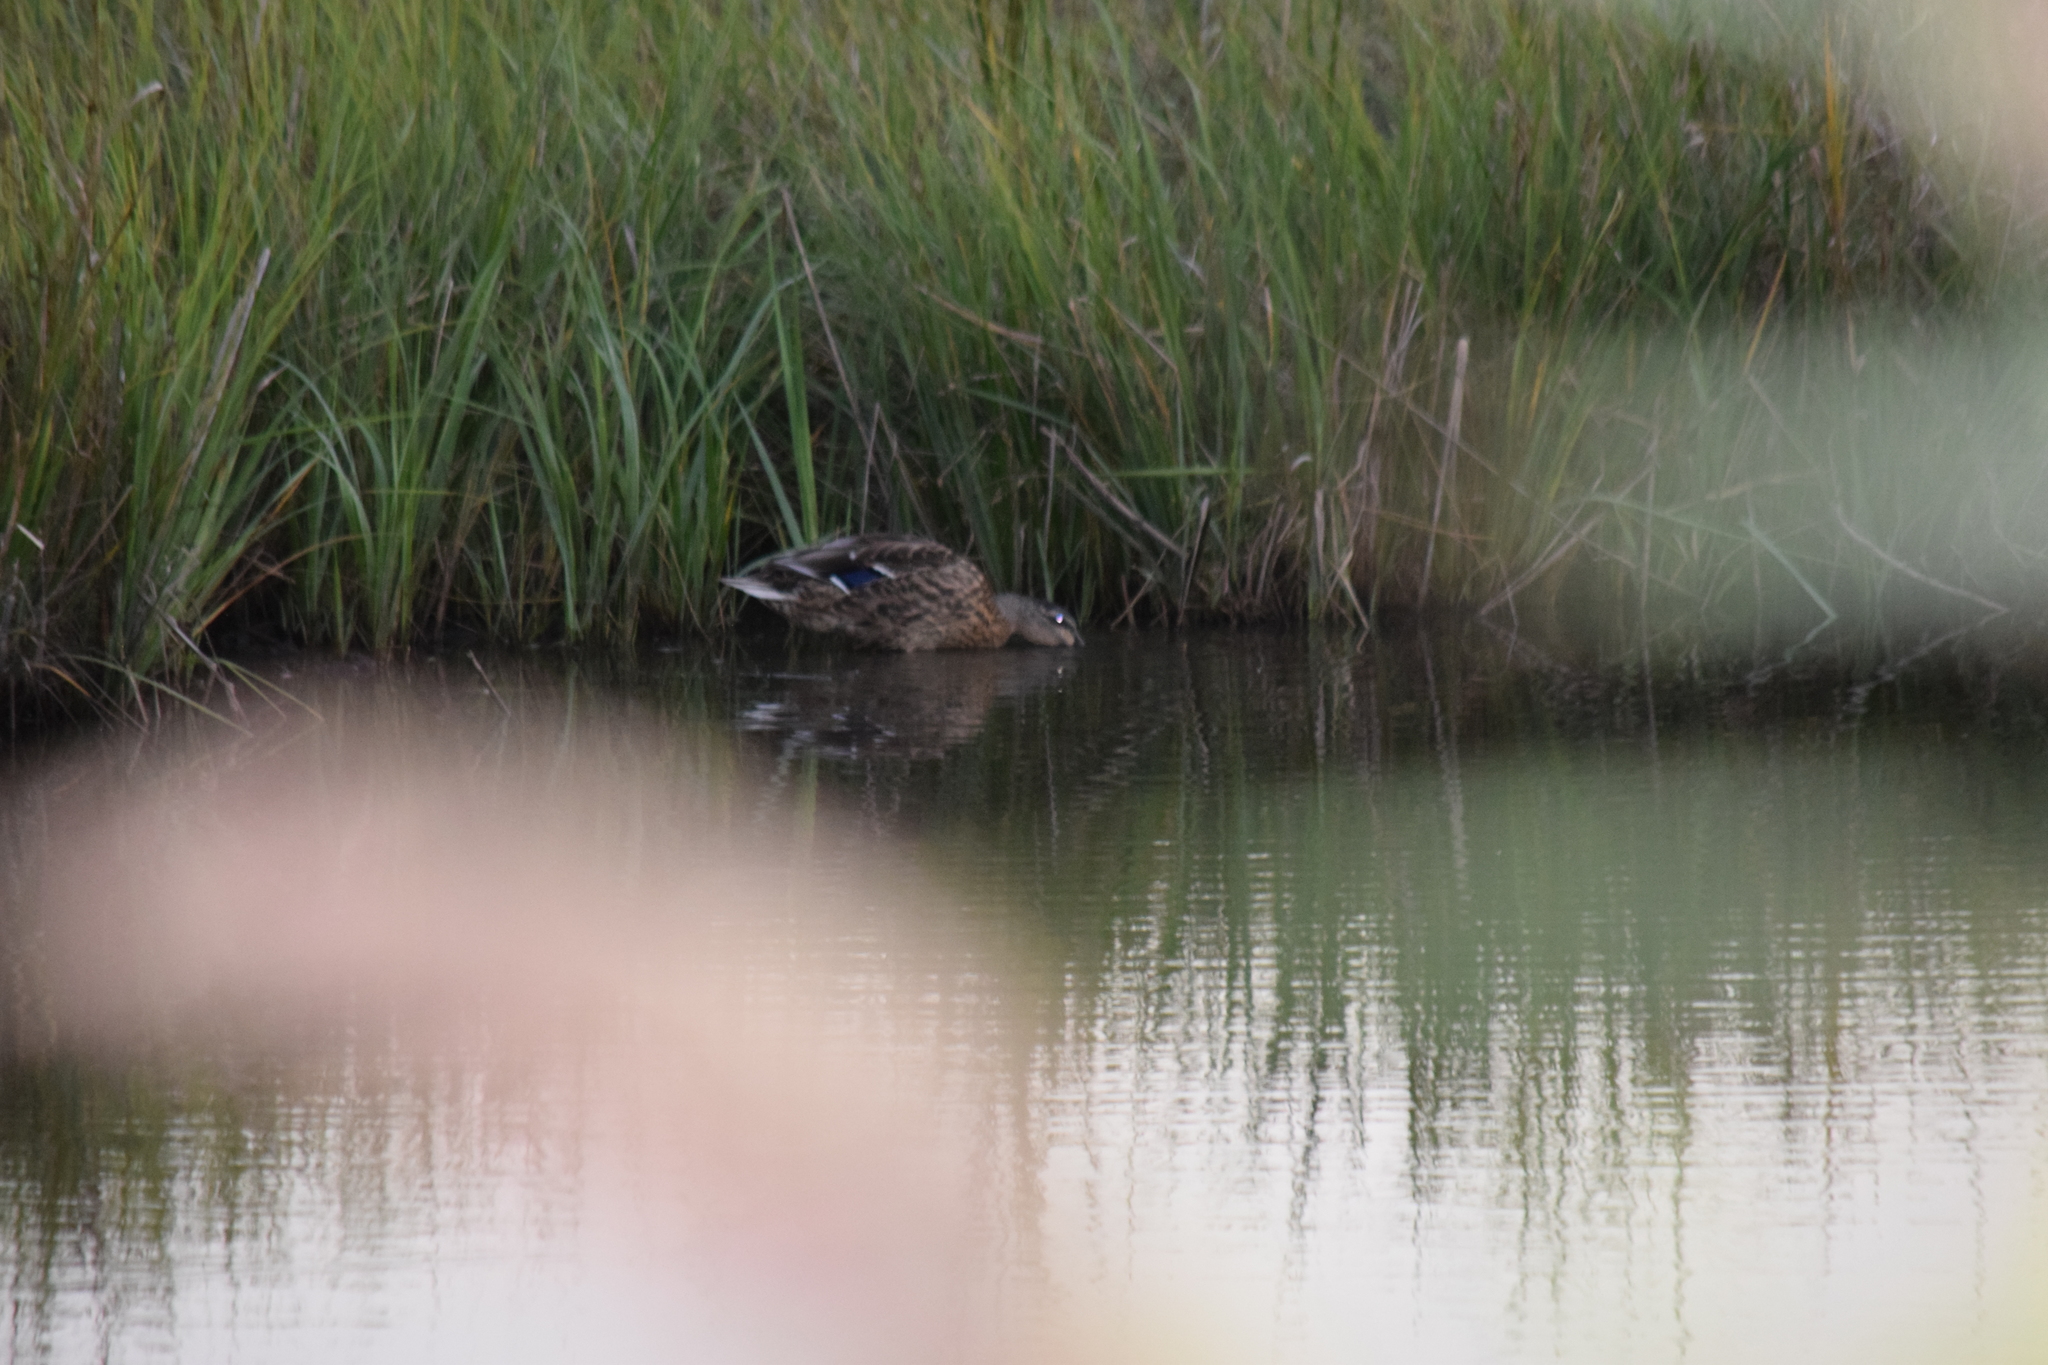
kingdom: Animalia
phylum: Chordata
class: Aves
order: Anseriformes
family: Anatidae
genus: Anas
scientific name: Anas platyrhynchos
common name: Mallard
